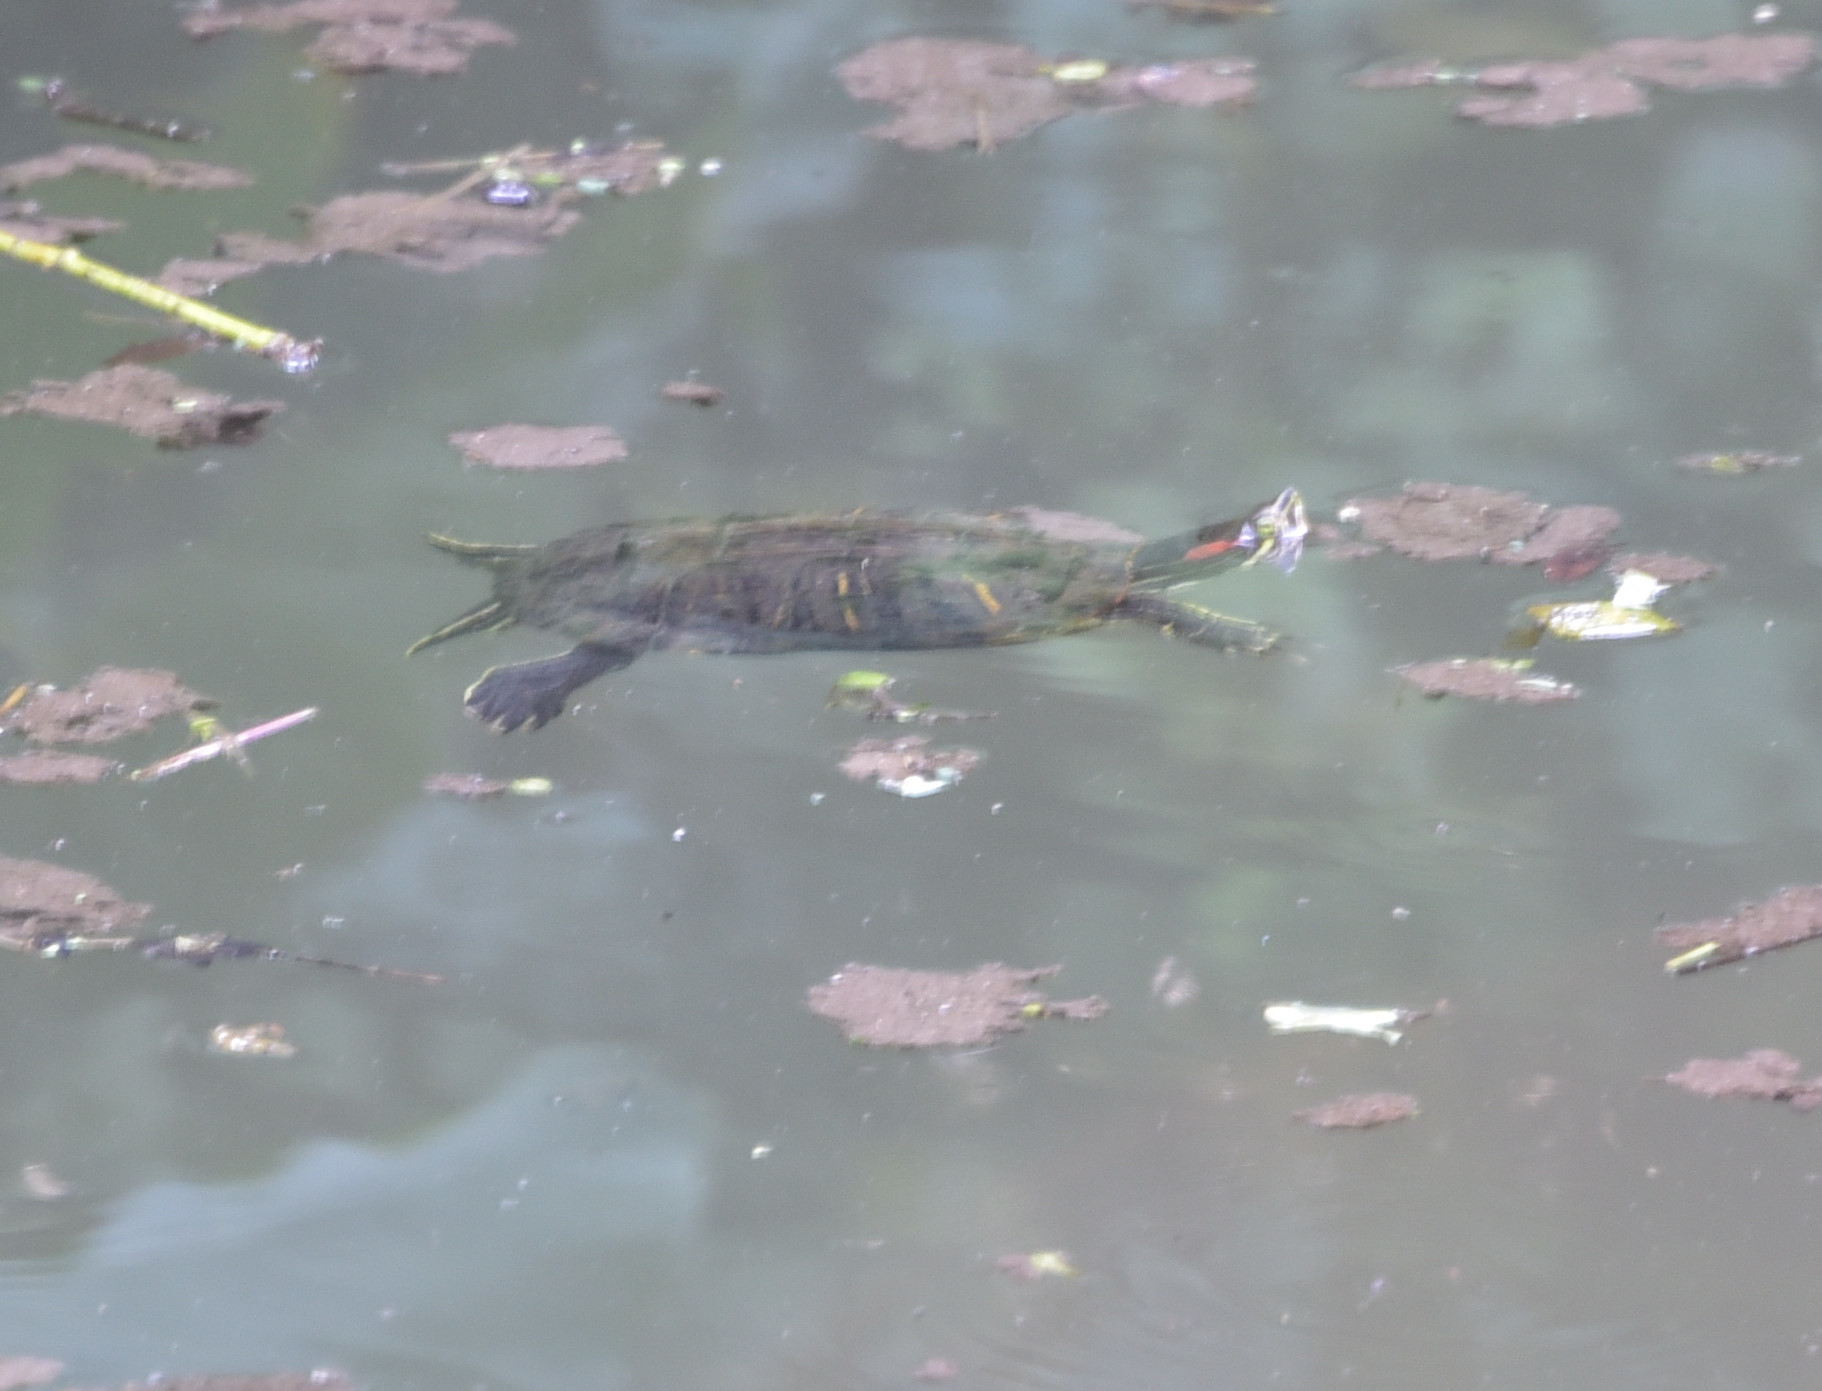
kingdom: Animalia
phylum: Chordata
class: Testudines
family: Emydidae
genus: Trachemys
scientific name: Trachemys scripta
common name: Slider
